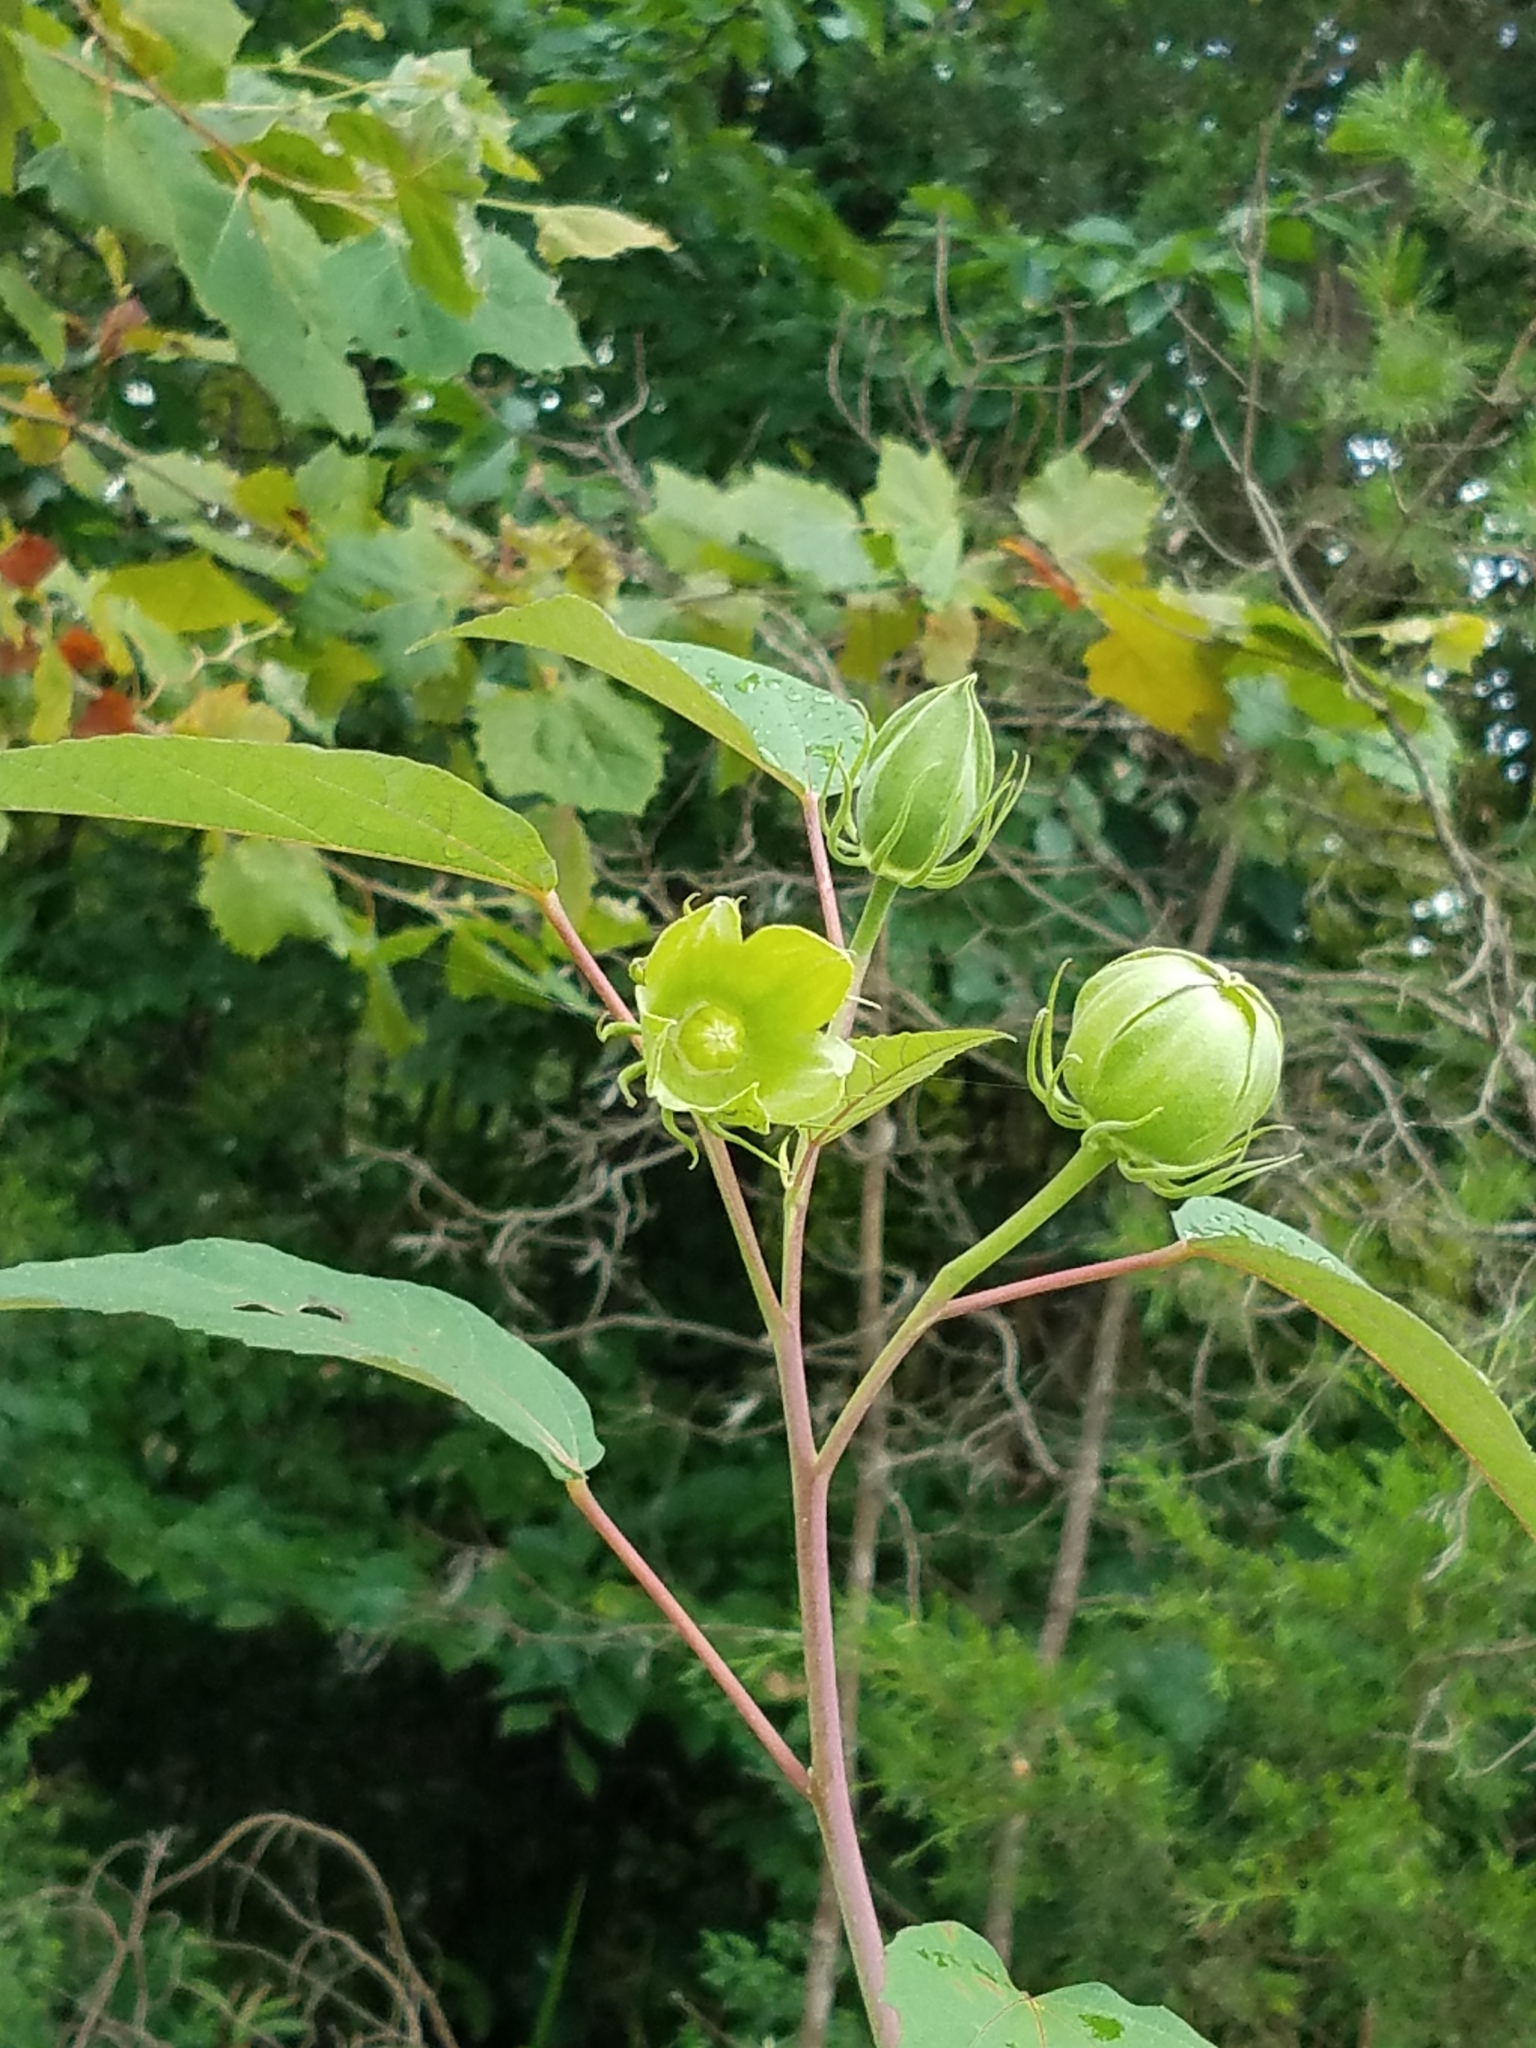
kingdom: Plantae
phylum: Tracheophyta
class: Magnoliopsida
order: Gentianales
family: Rubiaceae
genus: Cephalanthus
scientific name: Cephalanthus occidentalis
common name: Button-willow
